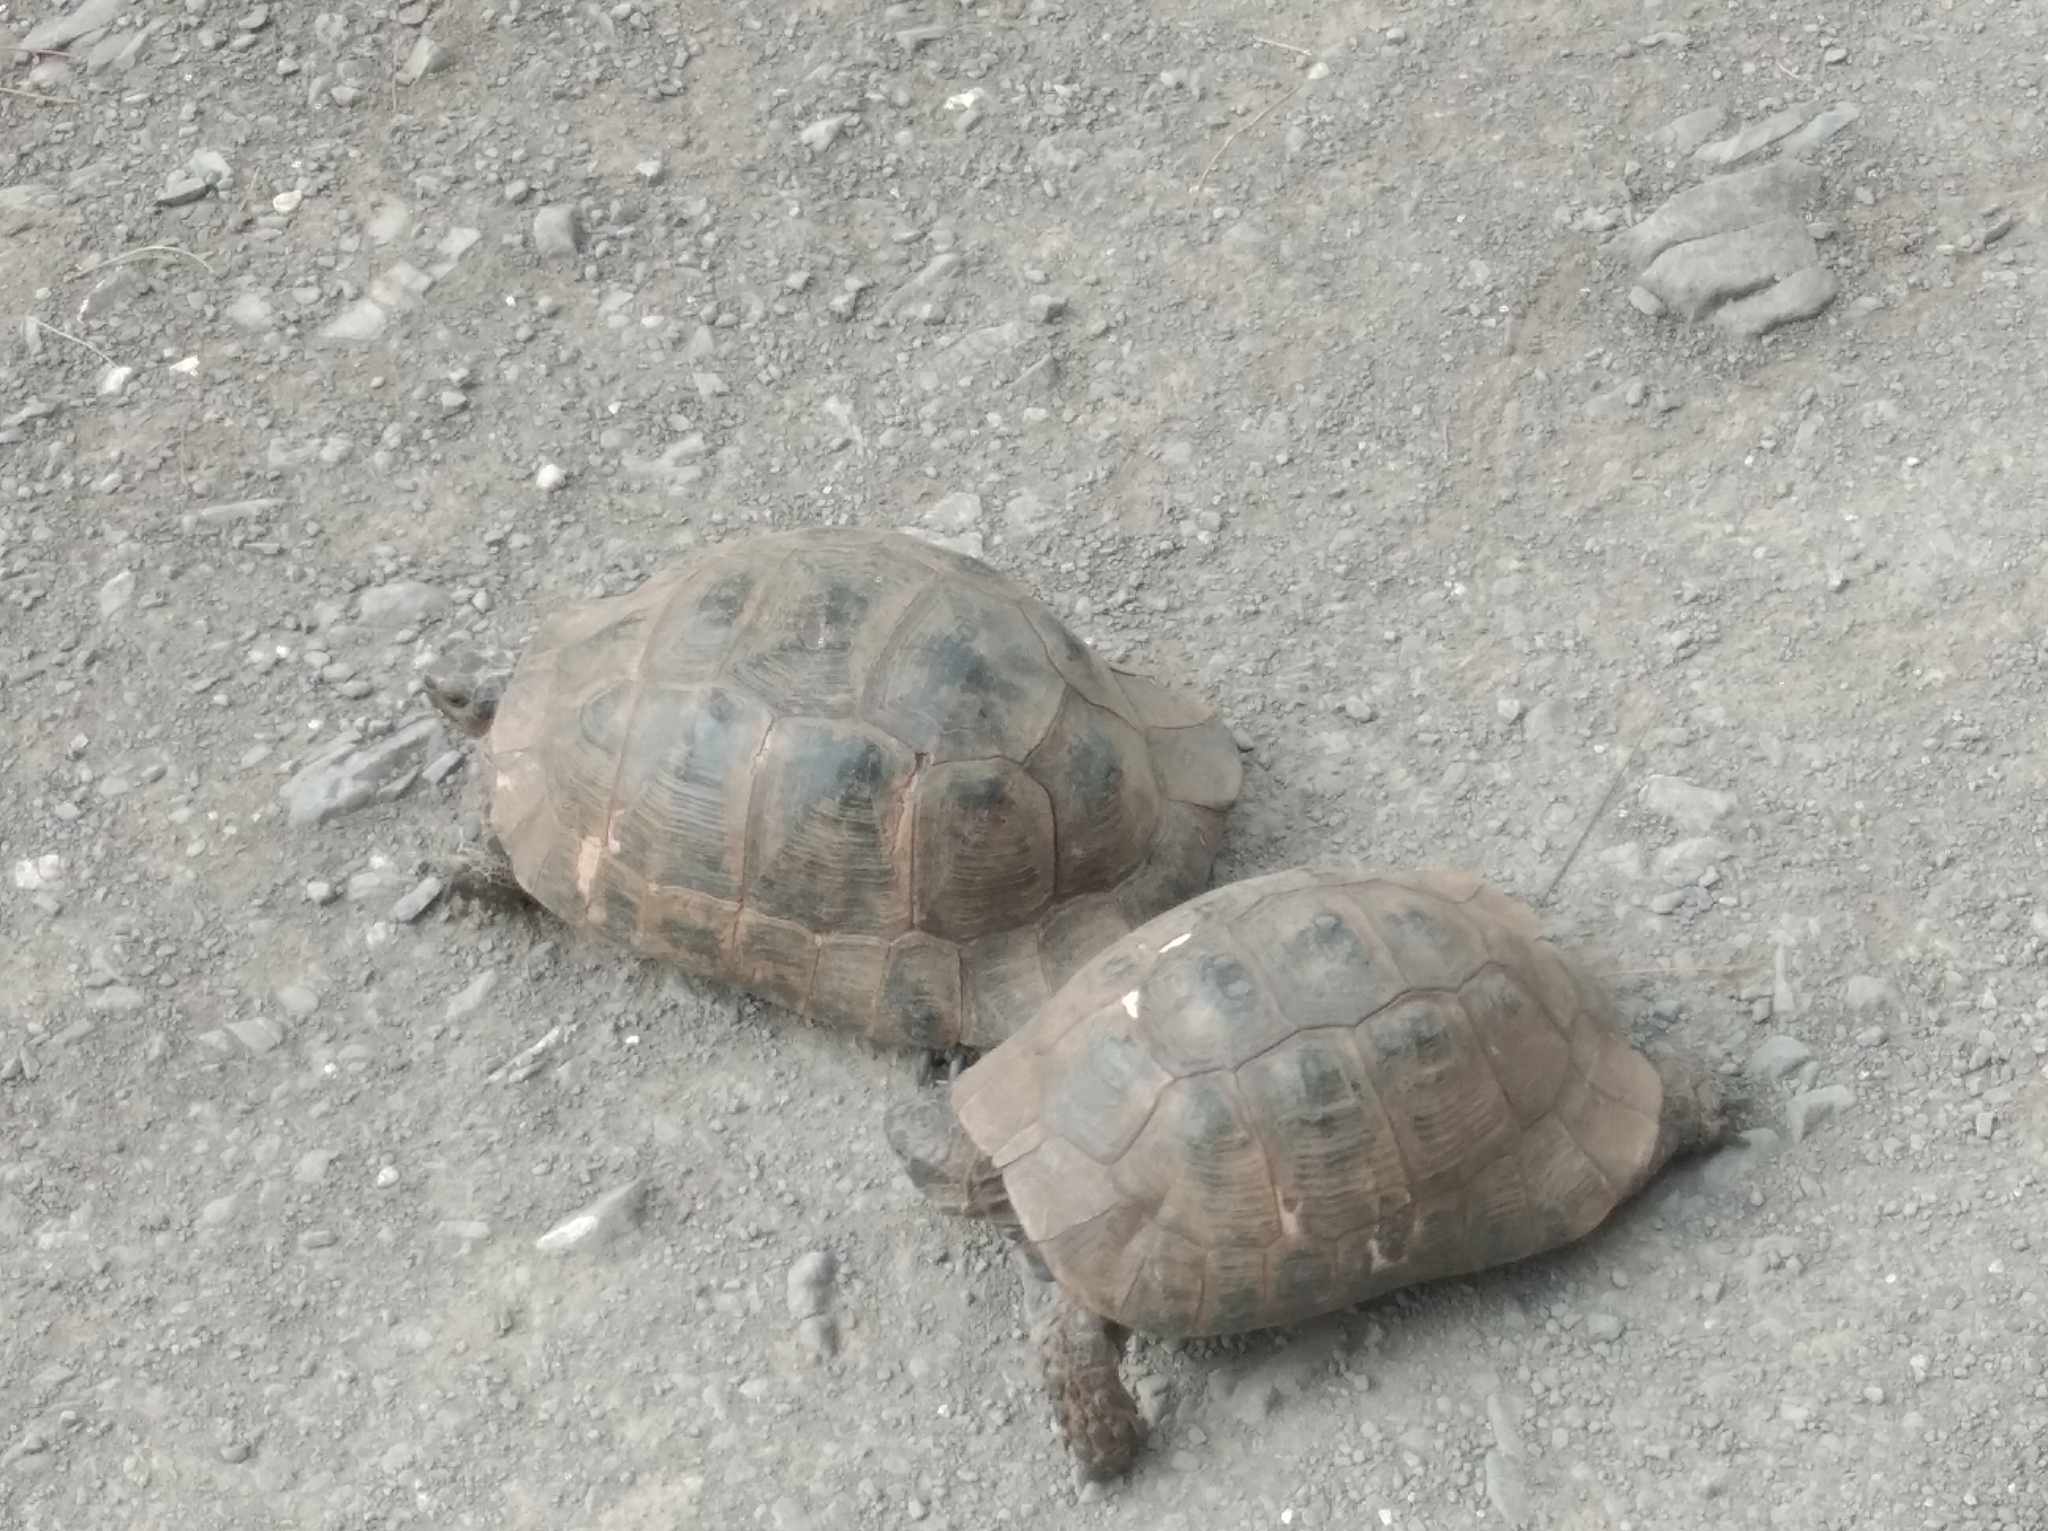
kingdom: Animalia
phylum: Chordata
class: Testudines
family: Testudinidae
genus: Testudo
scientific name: Testudo graeca
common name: Common tortoise
